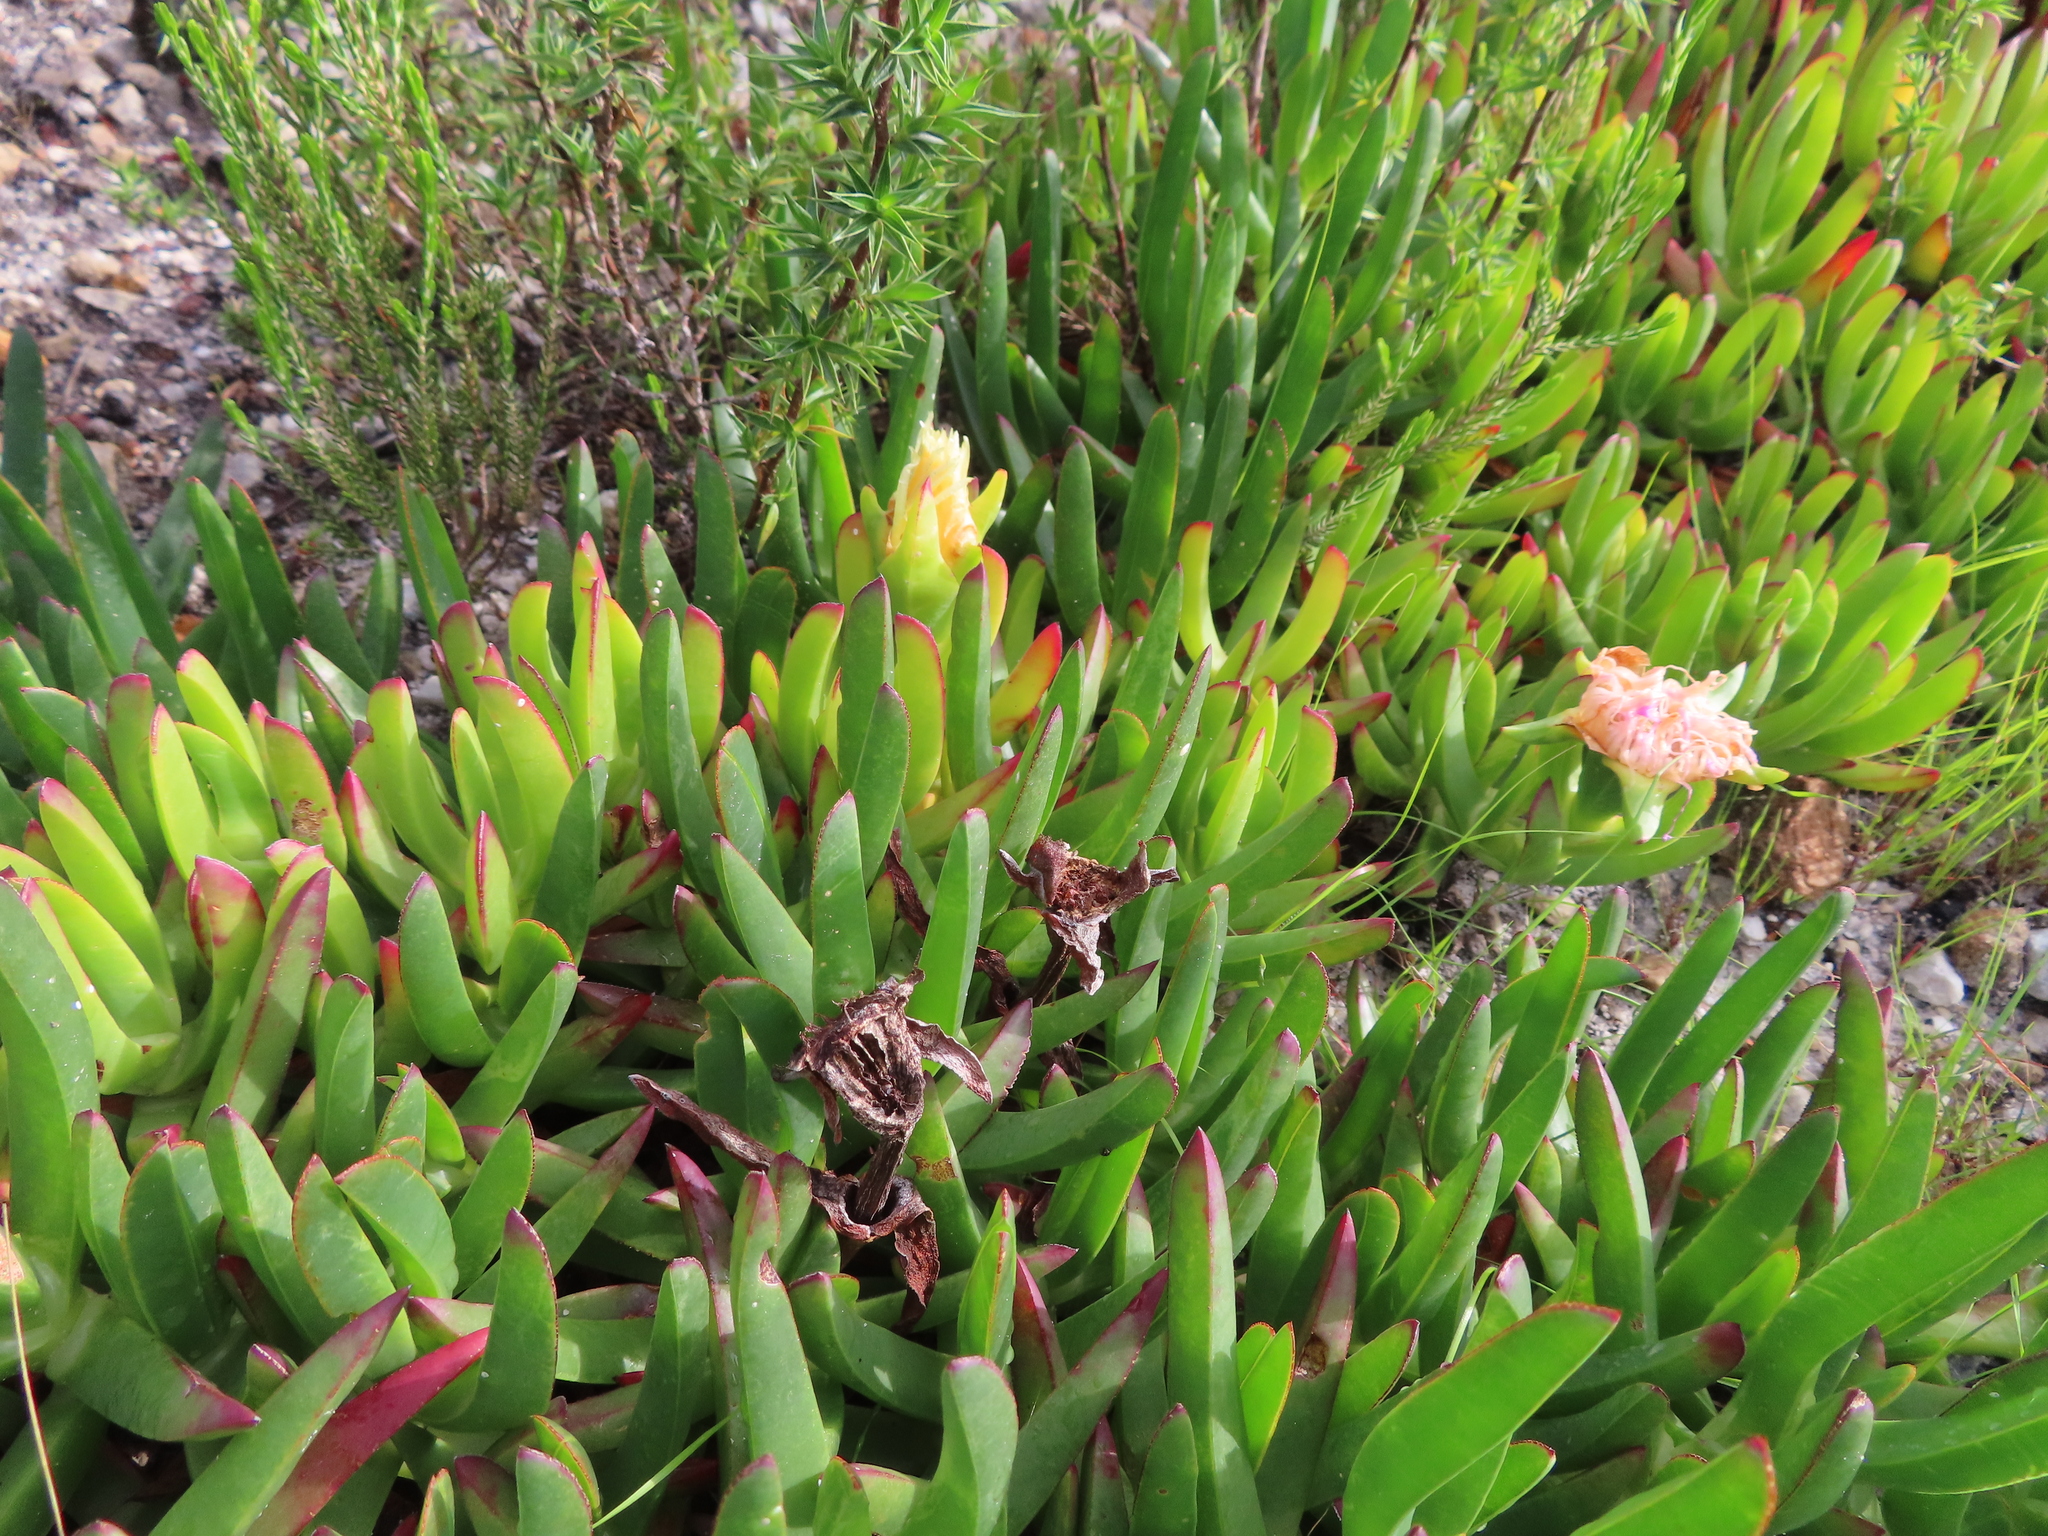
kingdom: Plantae
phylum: Tracheophyta
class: Magnoliopsida
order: Caryophyllales
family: Aizoaceae
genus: Carpobrotus
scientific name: Carpobrotus edulis
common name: Hottentot-fig
